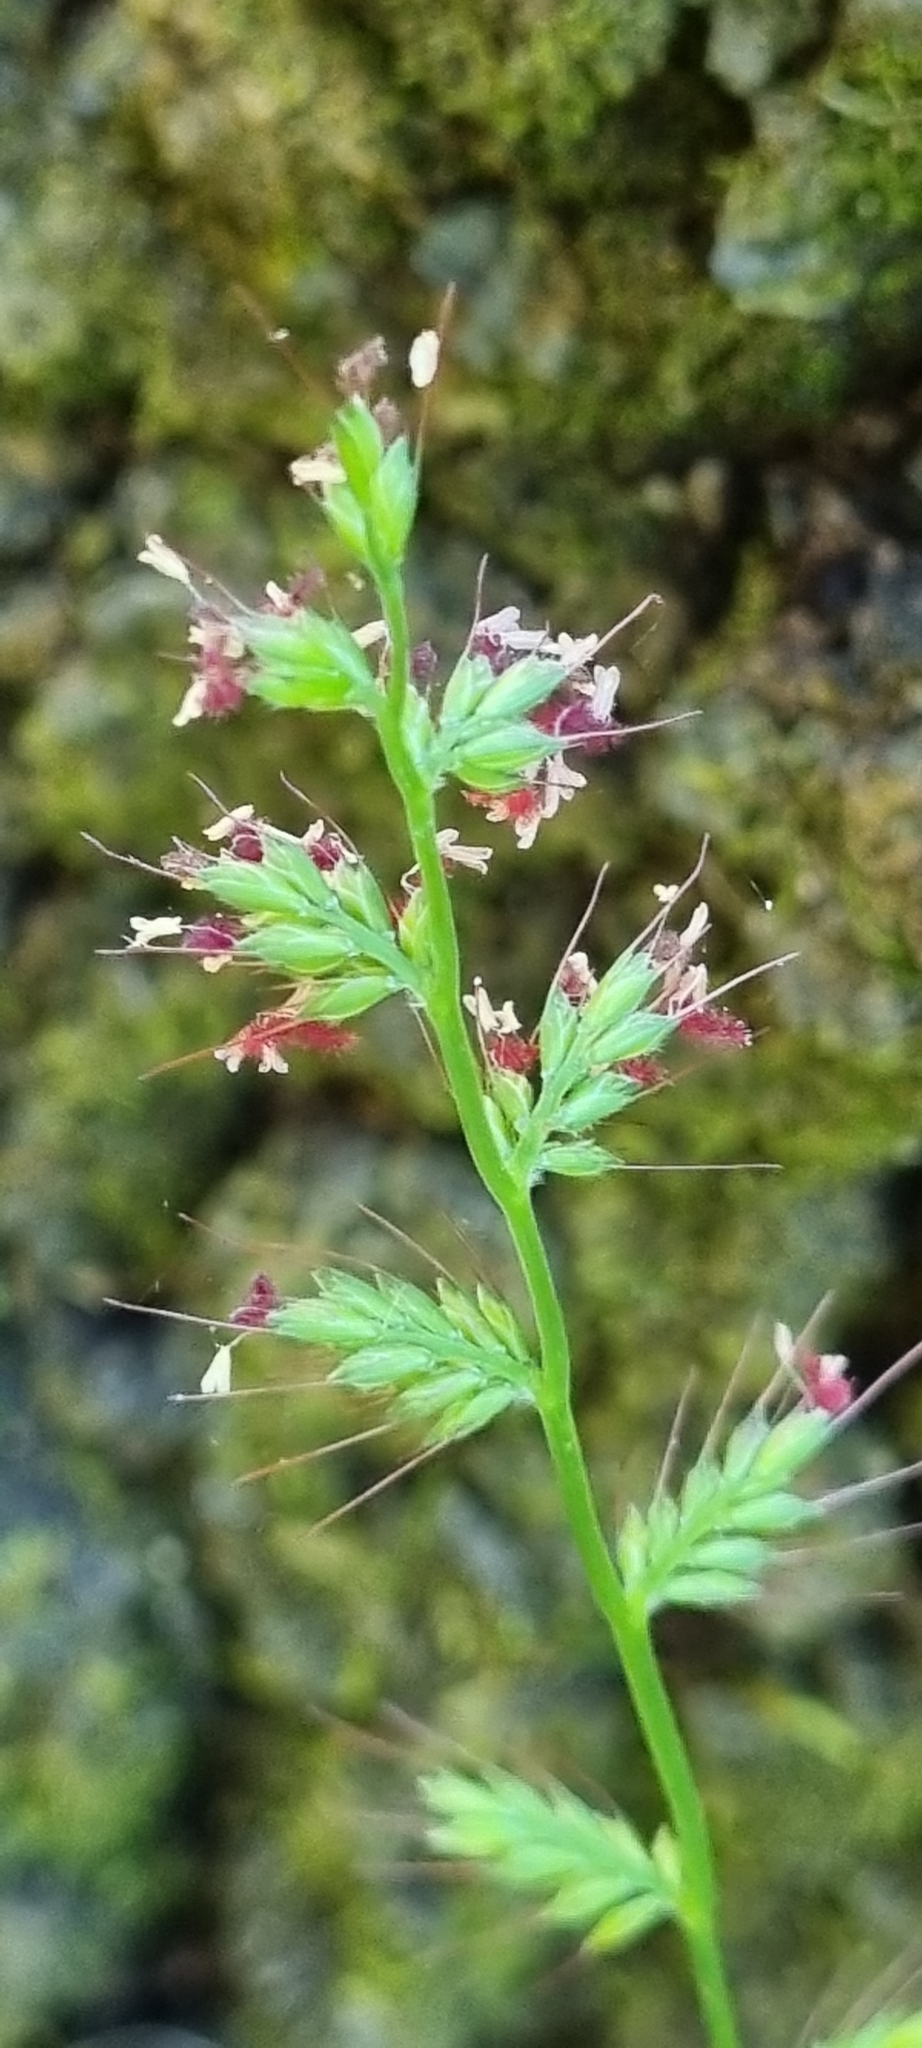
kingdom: Plantae
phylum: Tracheophyta
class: Liliopsida
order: Poales
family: Poaceae
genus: Oplismenus
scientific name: Oplismenus hirtellus
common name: Basketgrass
